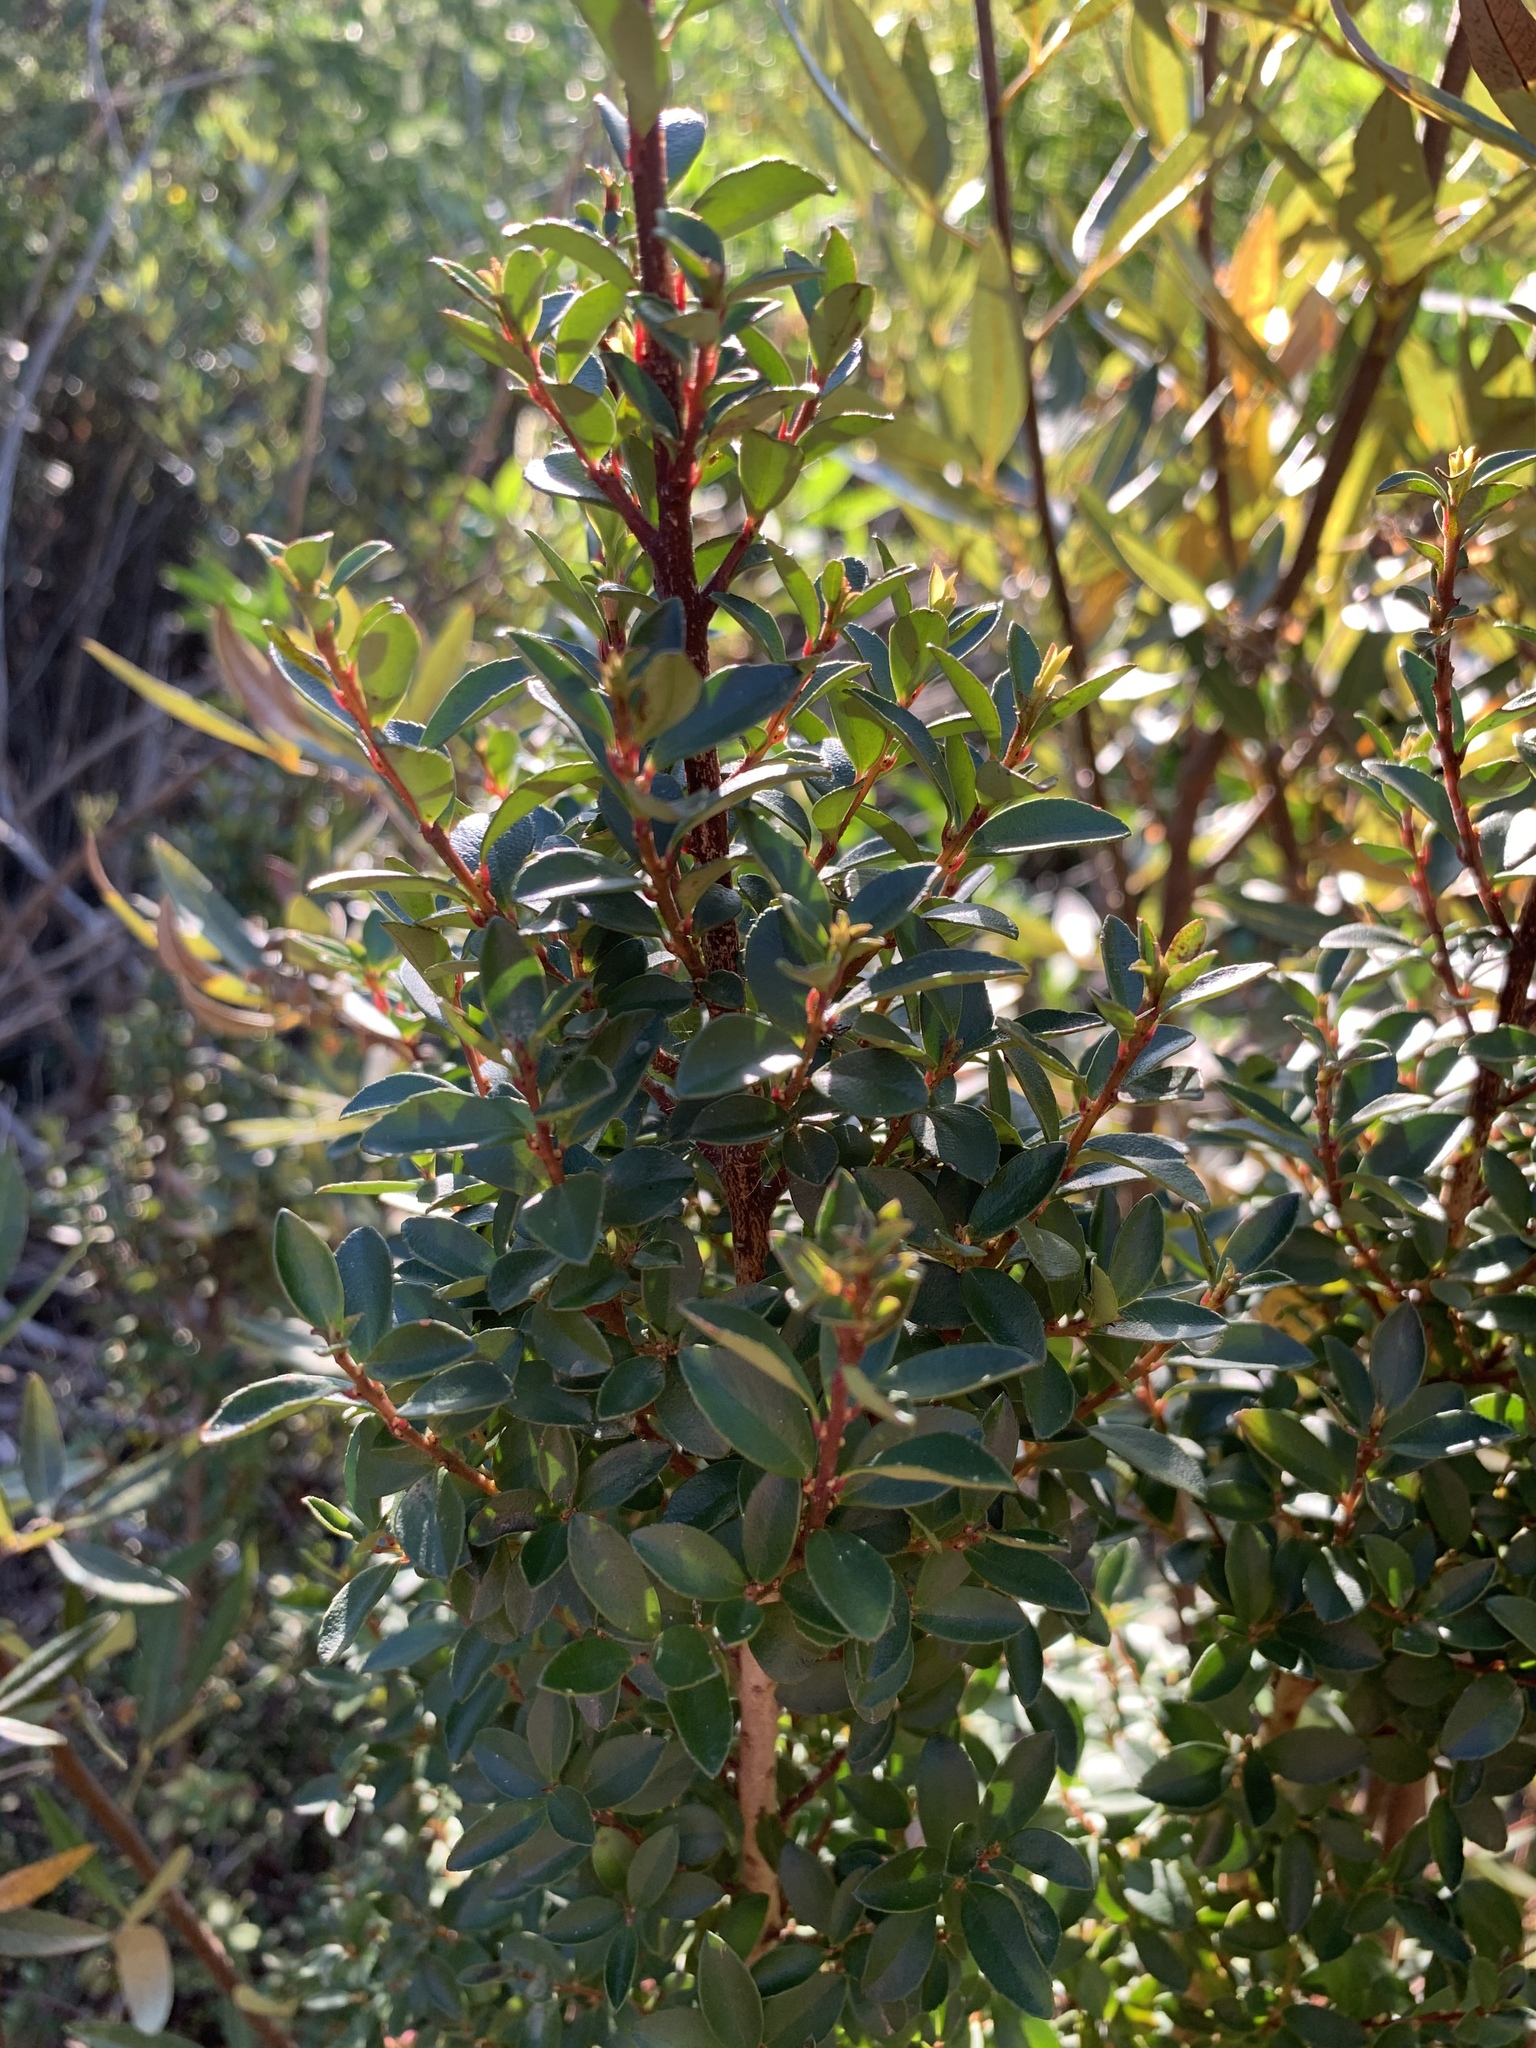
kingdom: Plantae
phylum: Tracheophyta
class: Magnoliopsida
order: Ericales
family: Primulaceae
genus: Myrsine
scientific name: Myrsine africana
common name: African-boxwood
